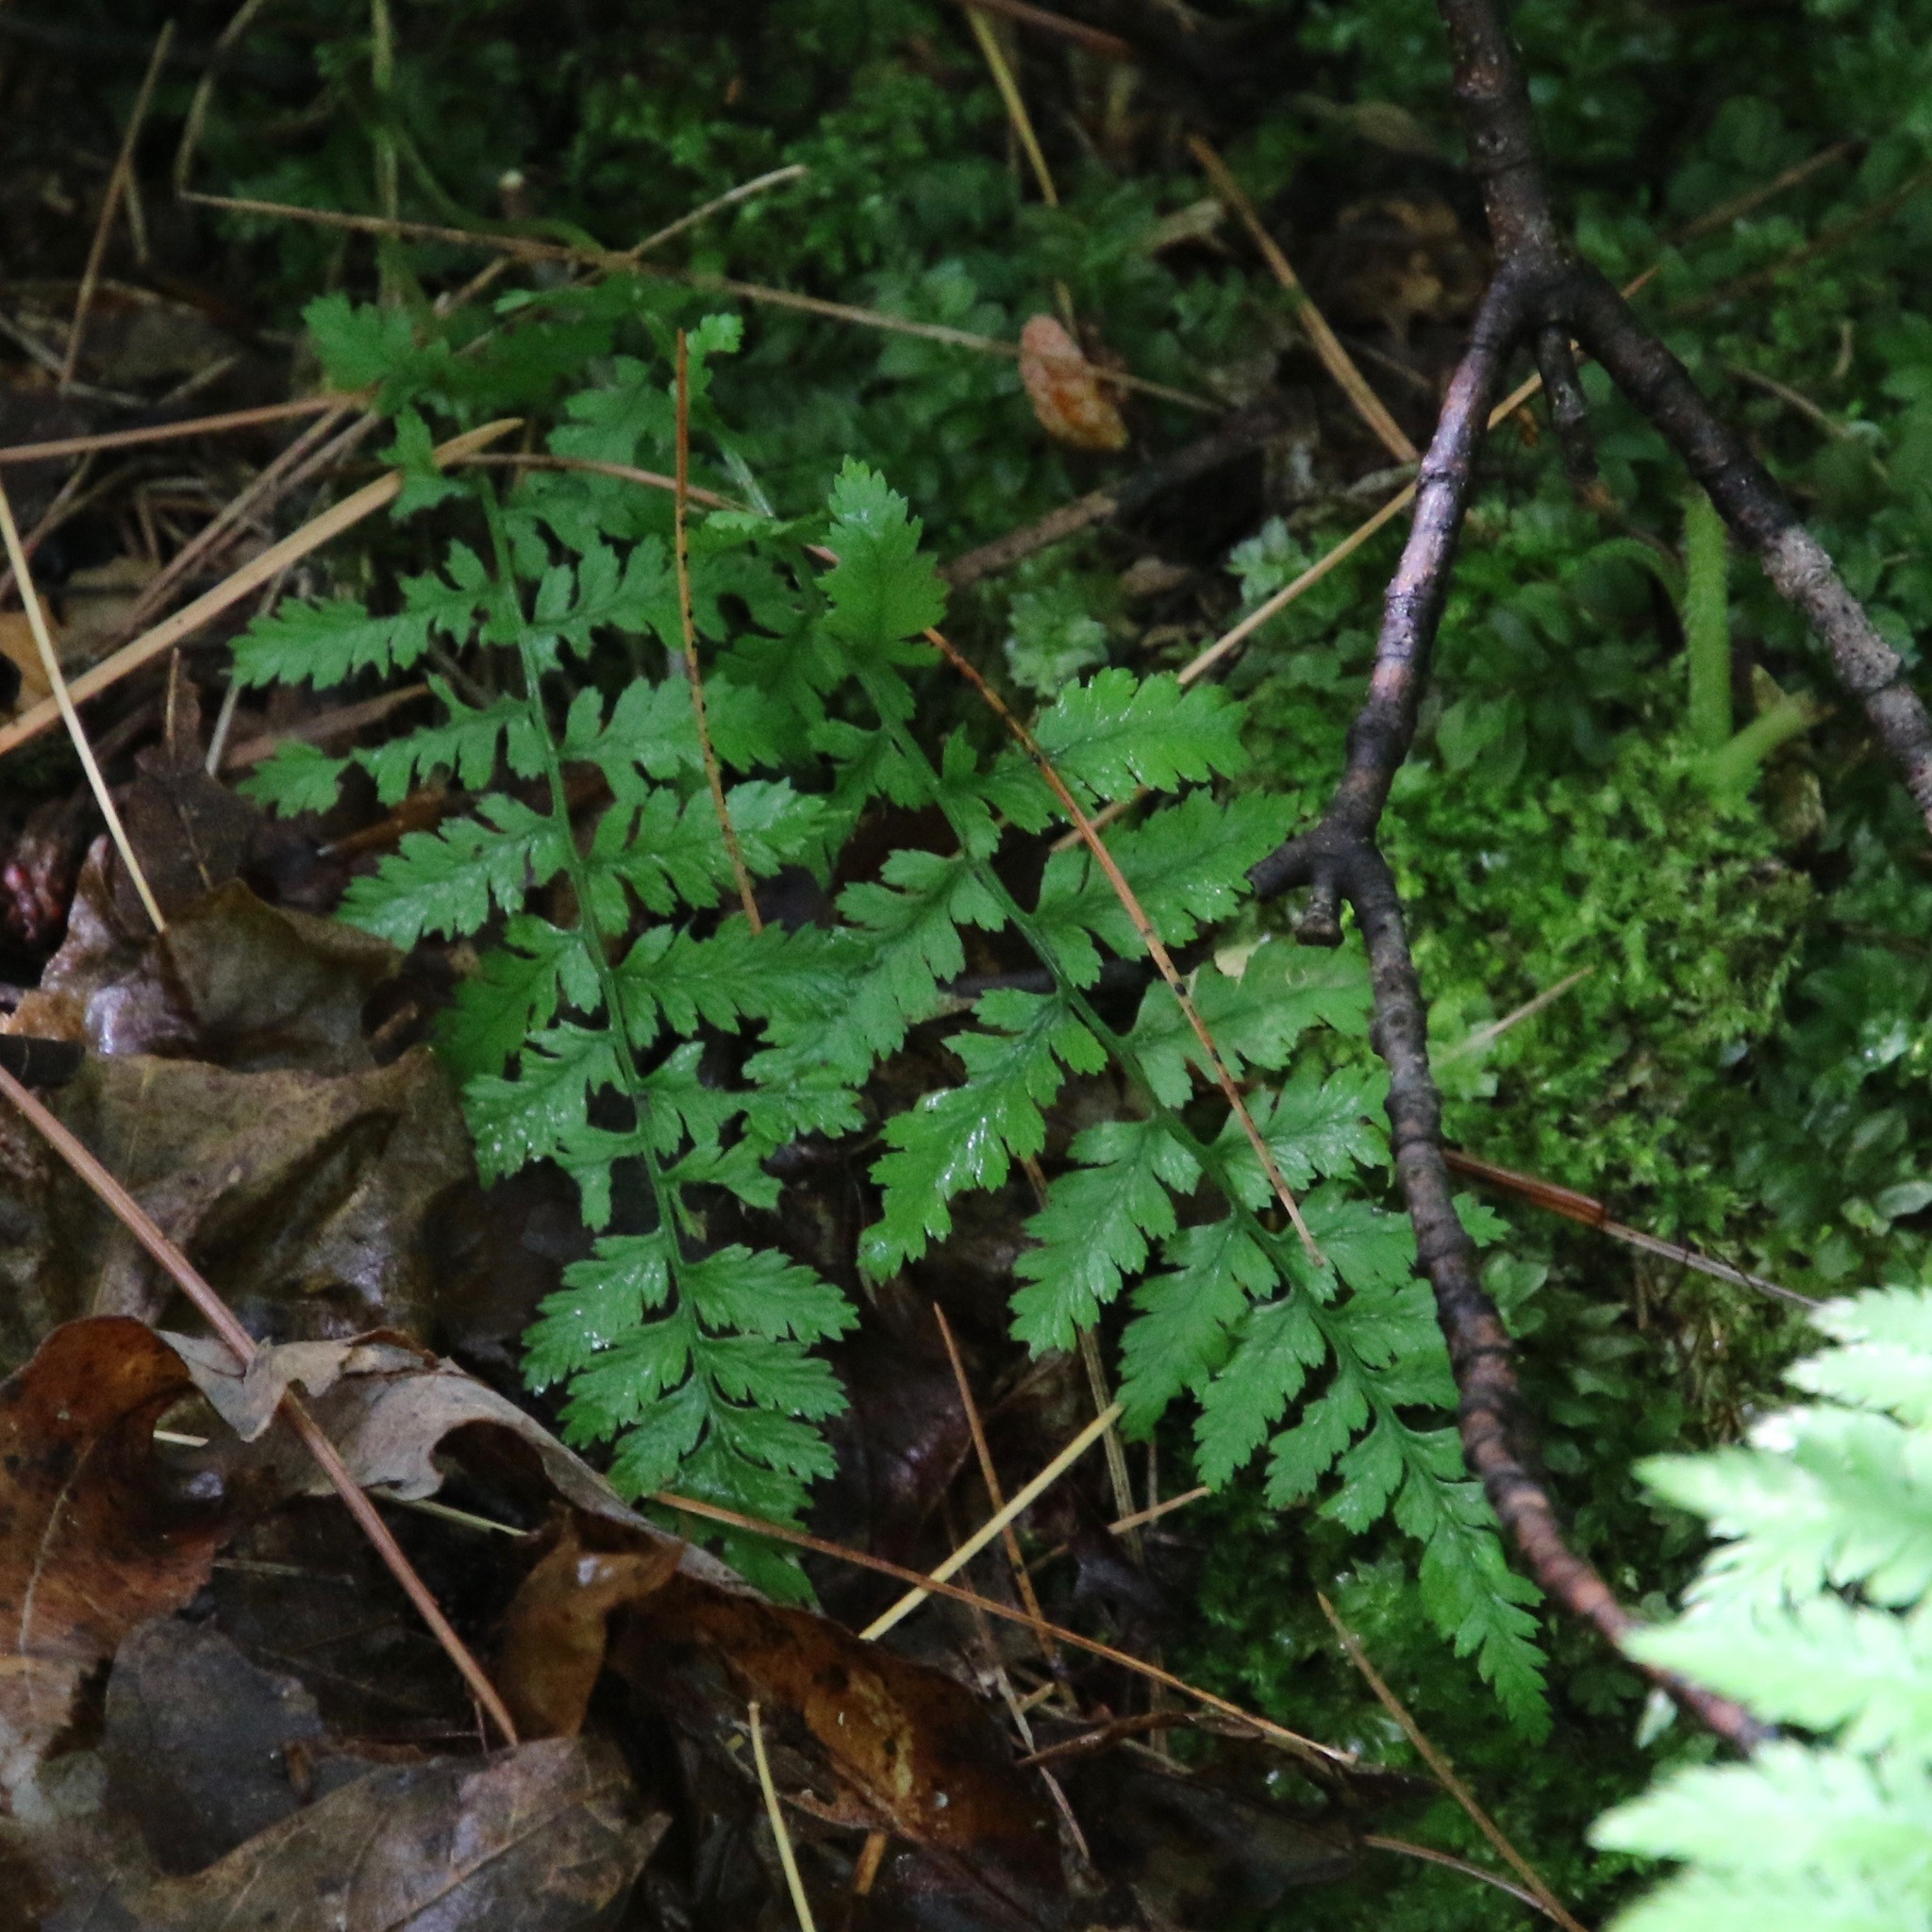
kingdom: Plantae
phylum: Tracheophyta
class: Polypodiopsida
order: Polypodiales
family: Athyriaceae
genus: Athyrium
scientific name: Athyrium angustum
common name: Northern lady fern
